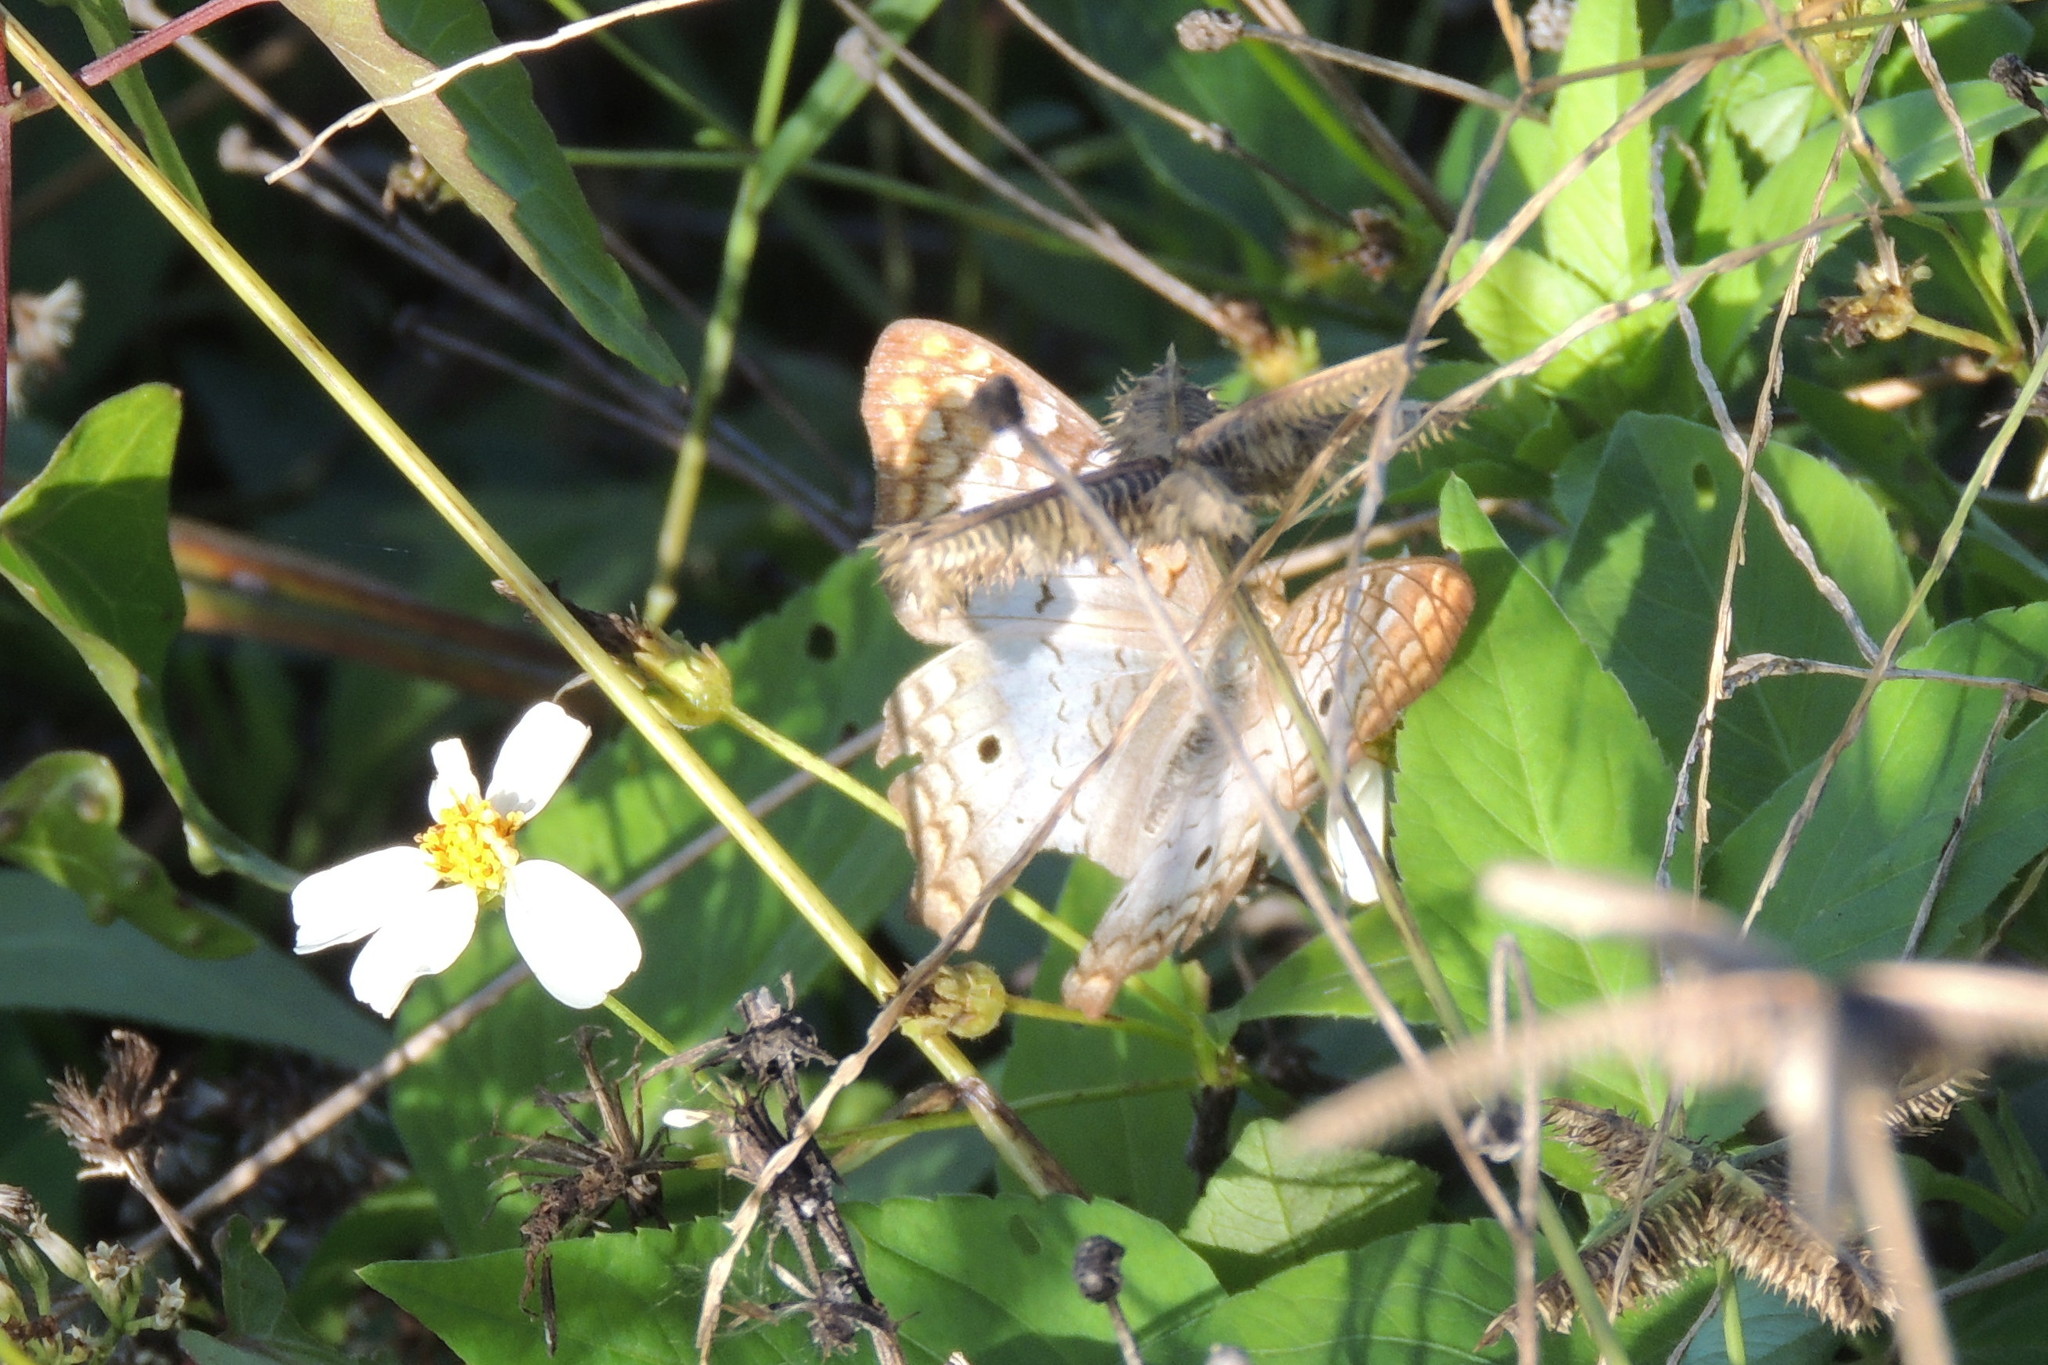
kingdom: Animalia
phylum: Arthropoda
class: Insecta
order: Lepidoptera
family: Nymphalidae
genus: Anartia
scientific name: Anartia jatrophae
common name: White peacock
